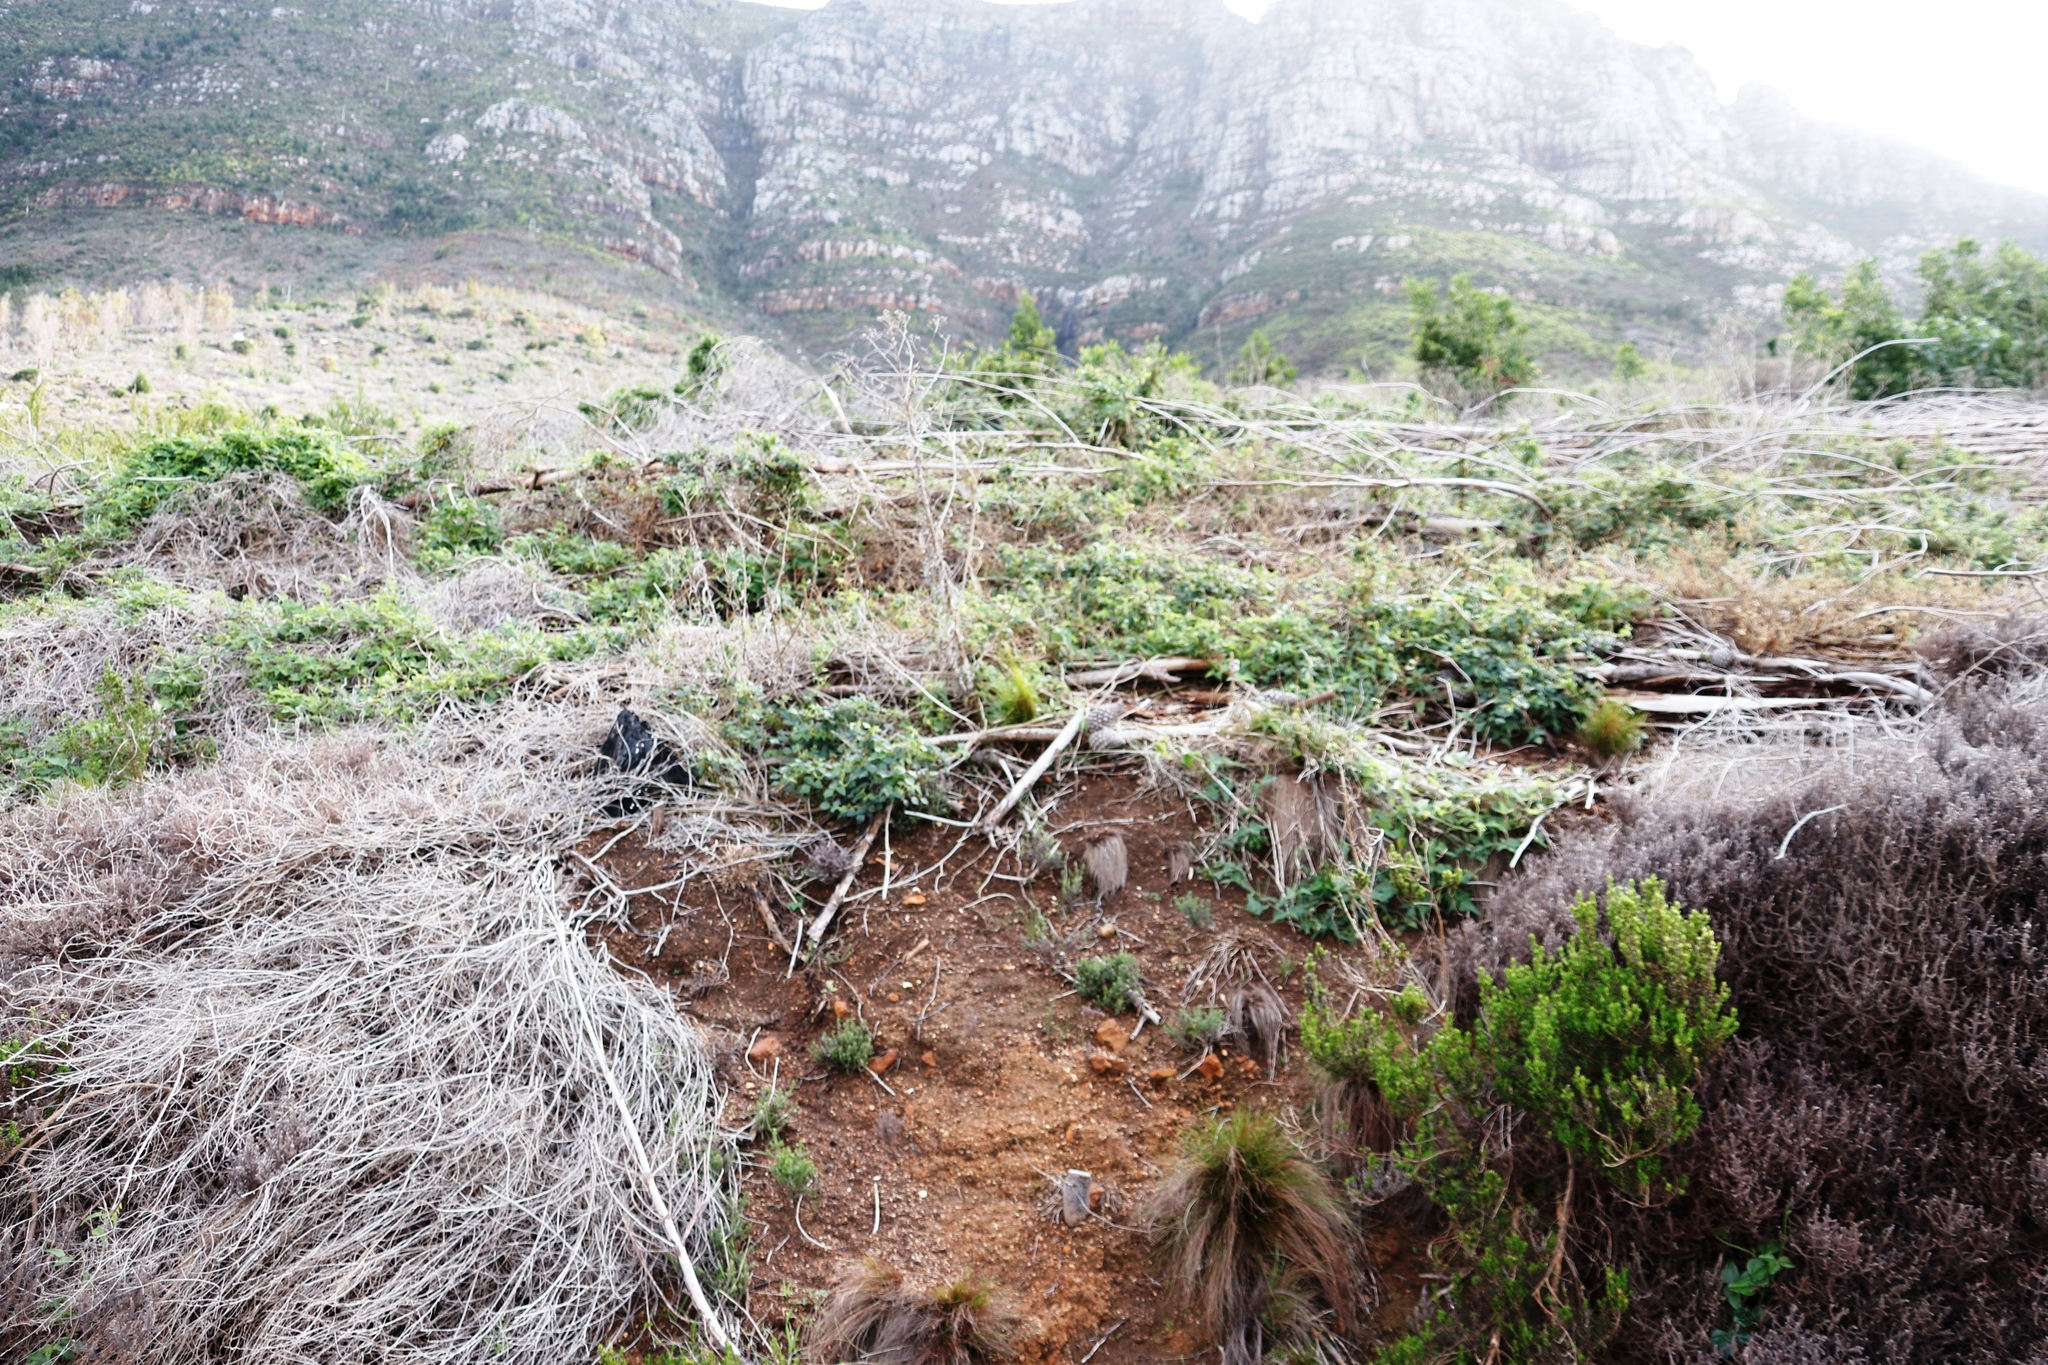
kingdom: Plantae
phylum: Tracheophyta
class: Magnoliopsida
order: Fabales
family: Fabaceae
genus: Dipogon
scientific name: Dipogon lignosus
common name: Okie bean
